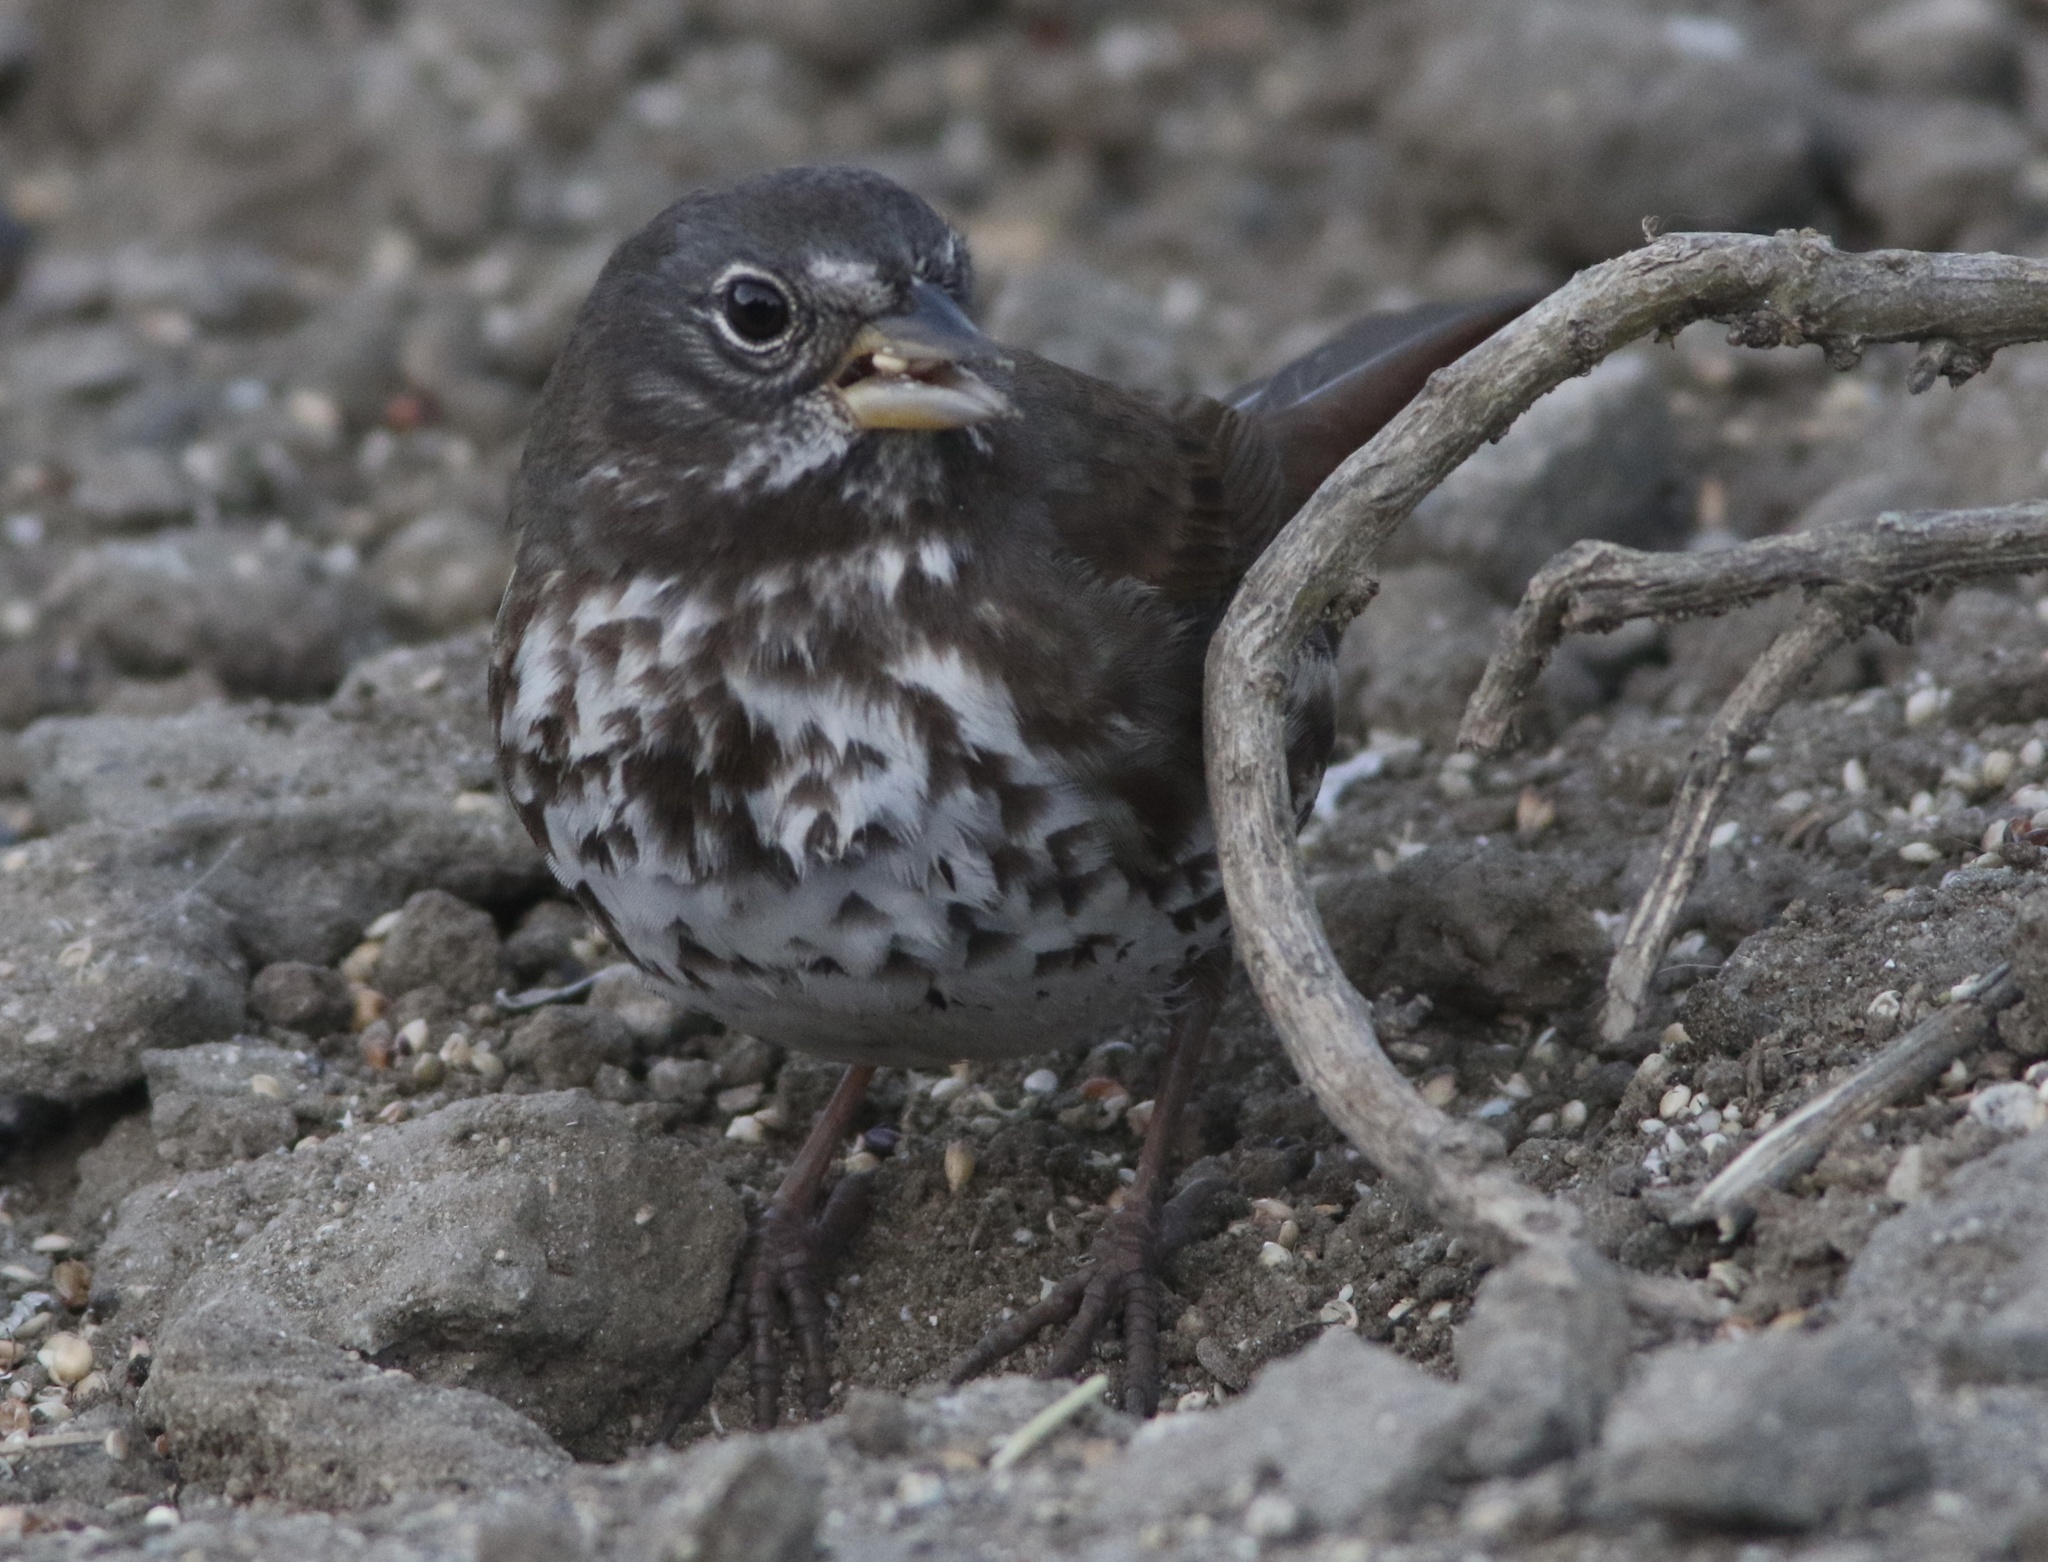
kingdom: Animalia
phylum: Chordata
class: Aves
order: Passeriformes
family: Passerellidae
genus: Passerella
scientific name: Passerella iliaca
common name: Fox sparrow
